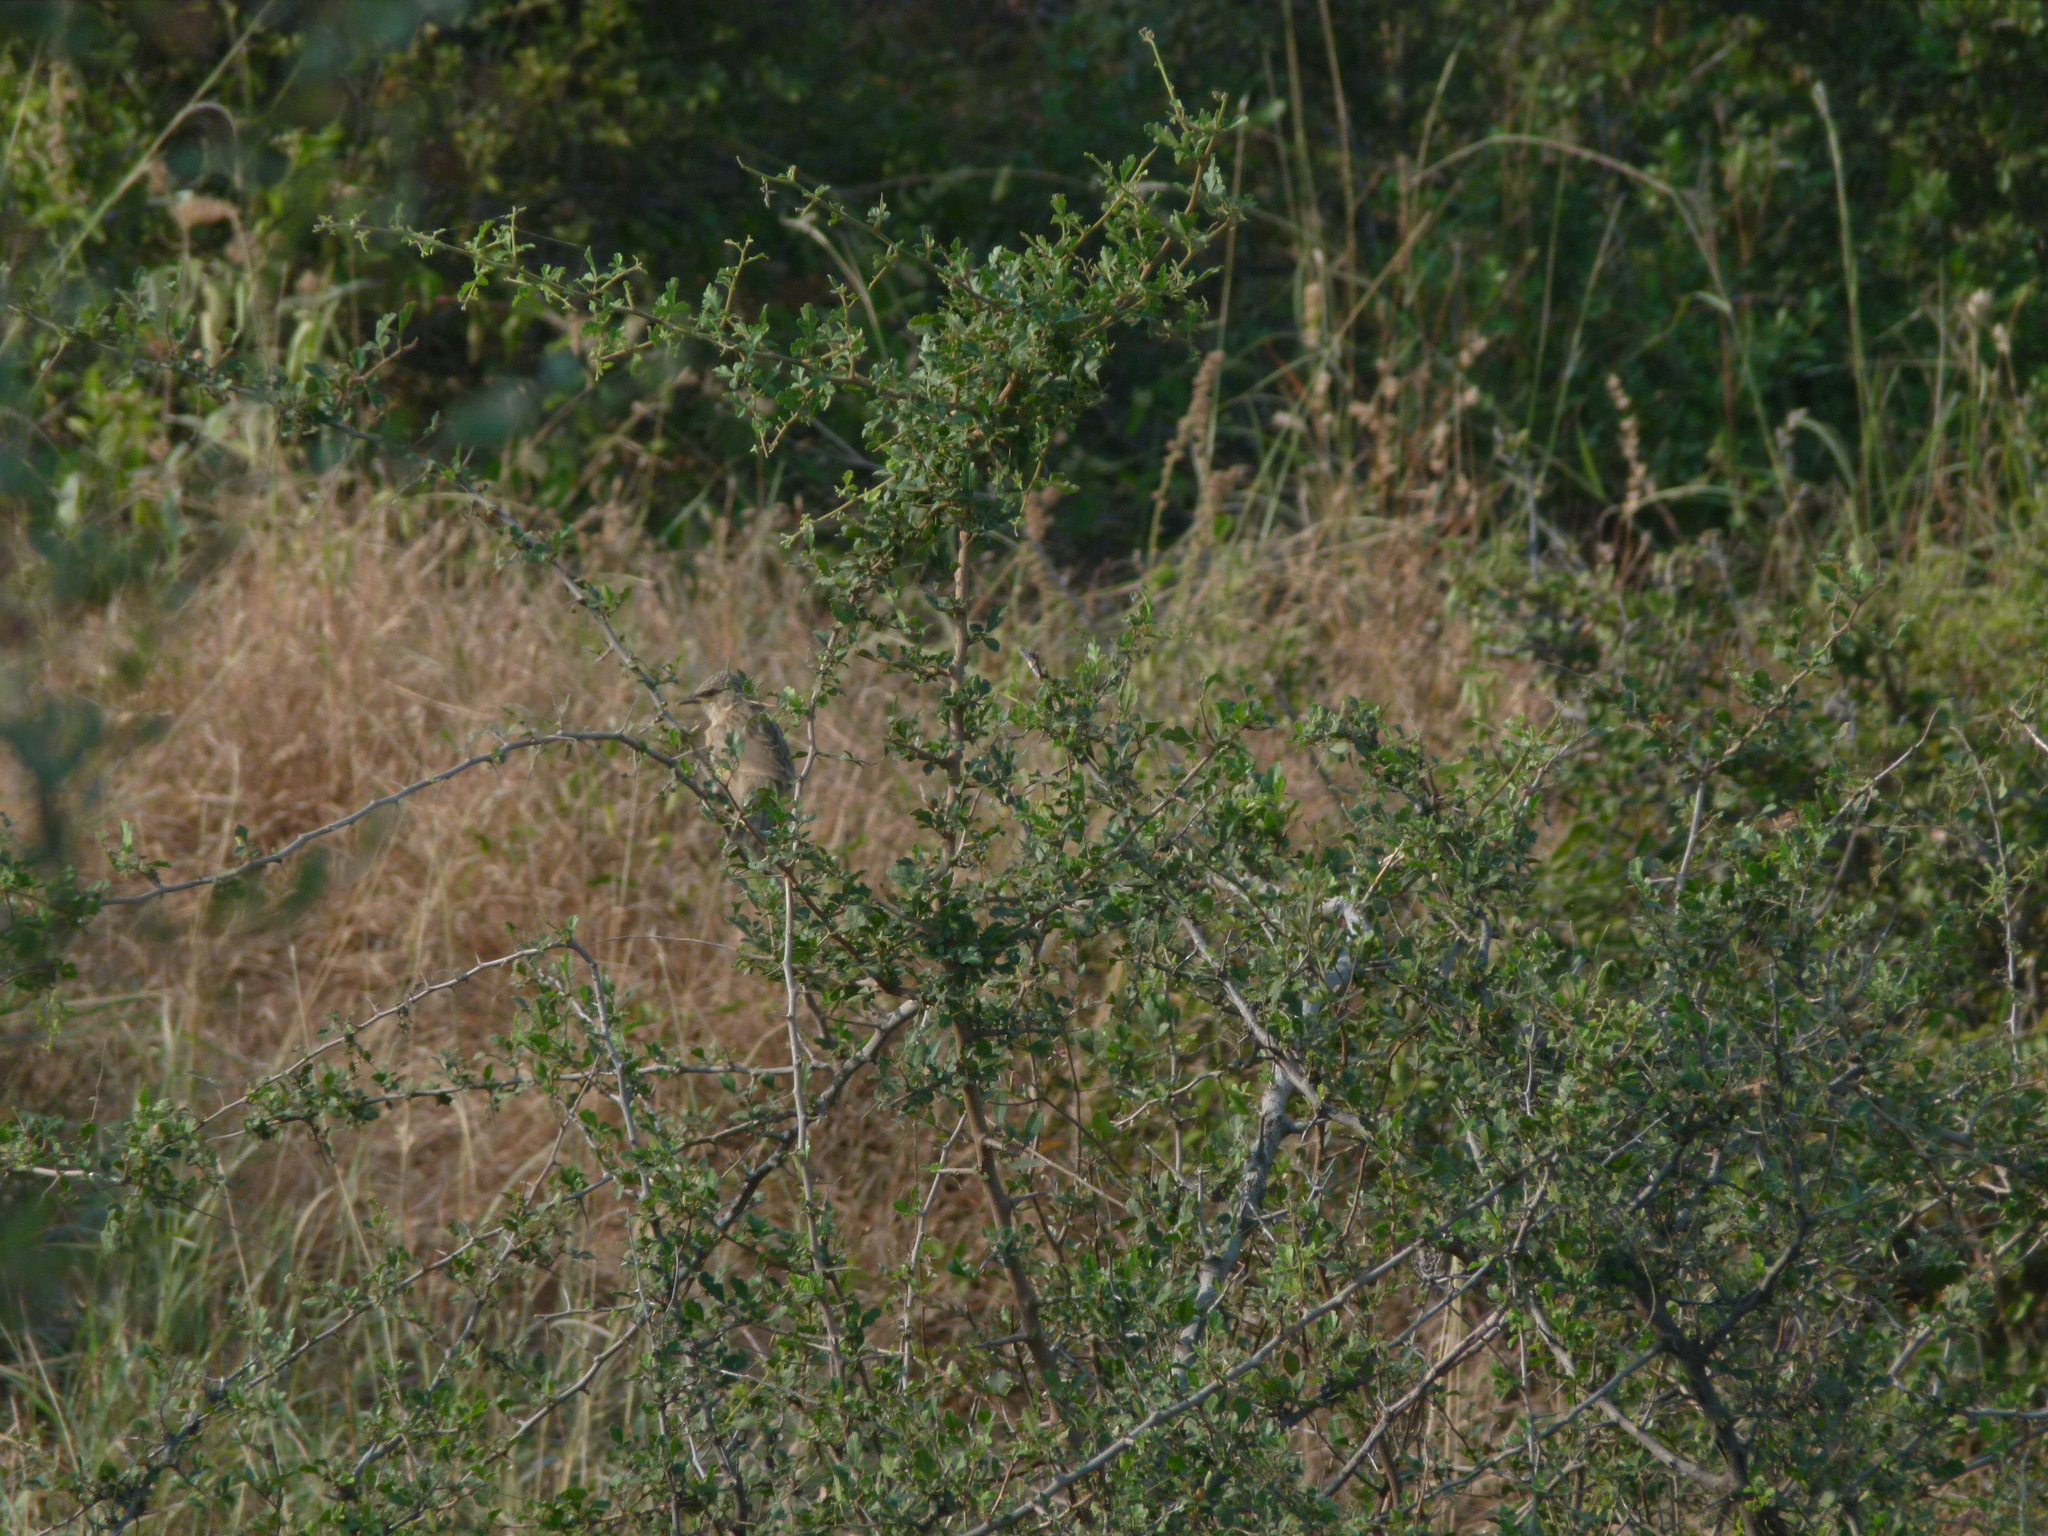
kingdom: Animalia
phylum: Chordata
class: Aves
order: Passeriformes
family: Leiothrichidae
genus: Turdoides
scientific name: Turdoides malcolmi
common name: Large grey babbler
